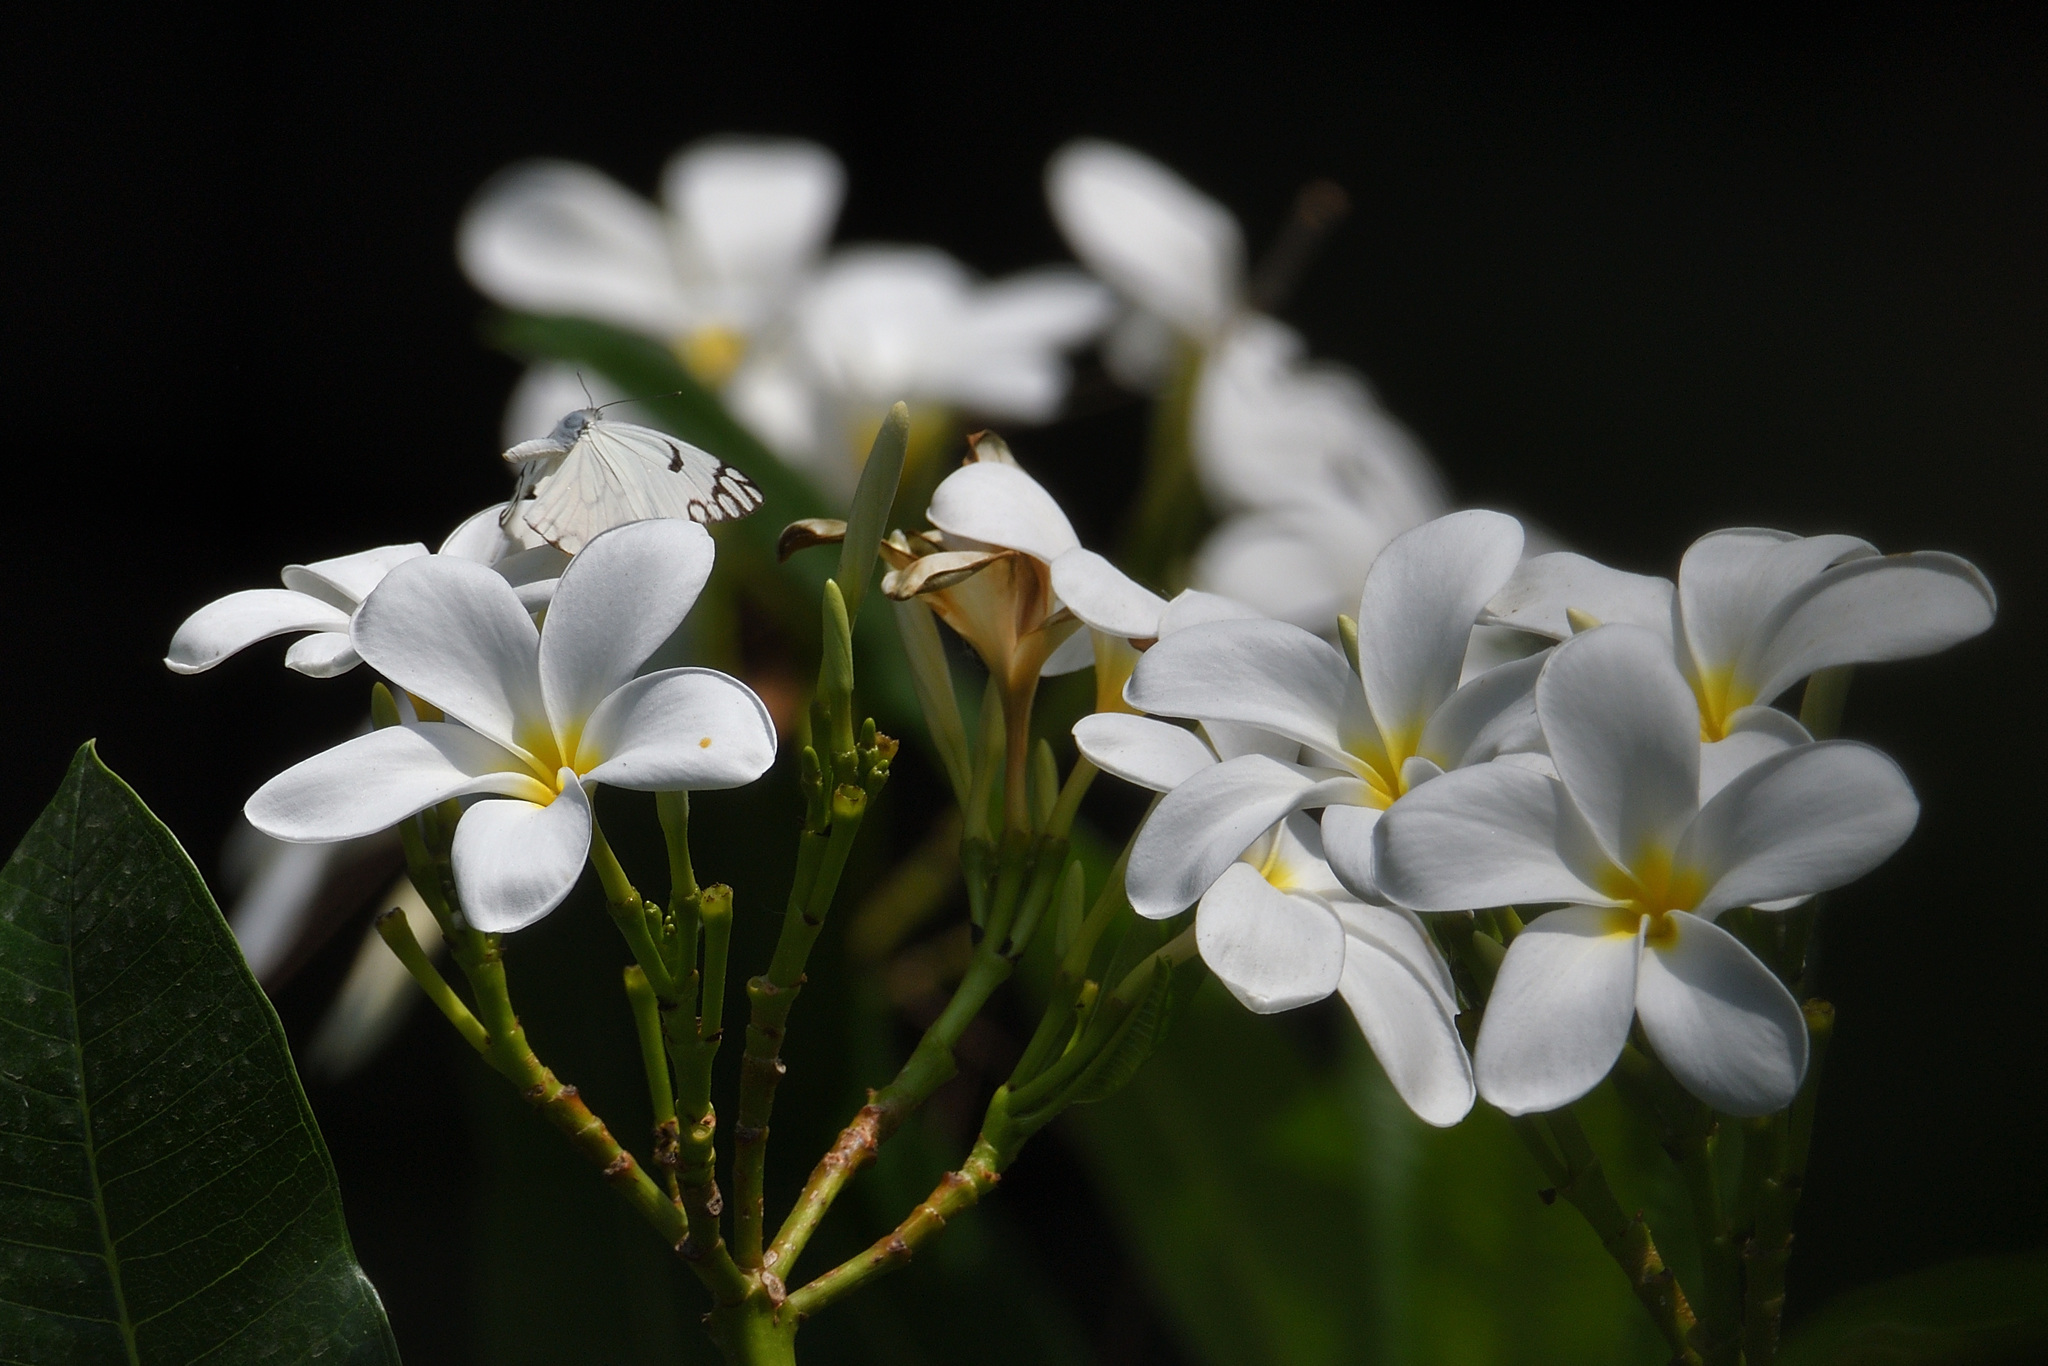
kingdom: Animalia
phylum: Arthropoda
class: Insecta
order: Lepidoptera
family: Pieridae
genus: Belenois
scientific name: Belenois aurota
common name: Brown-veined white
